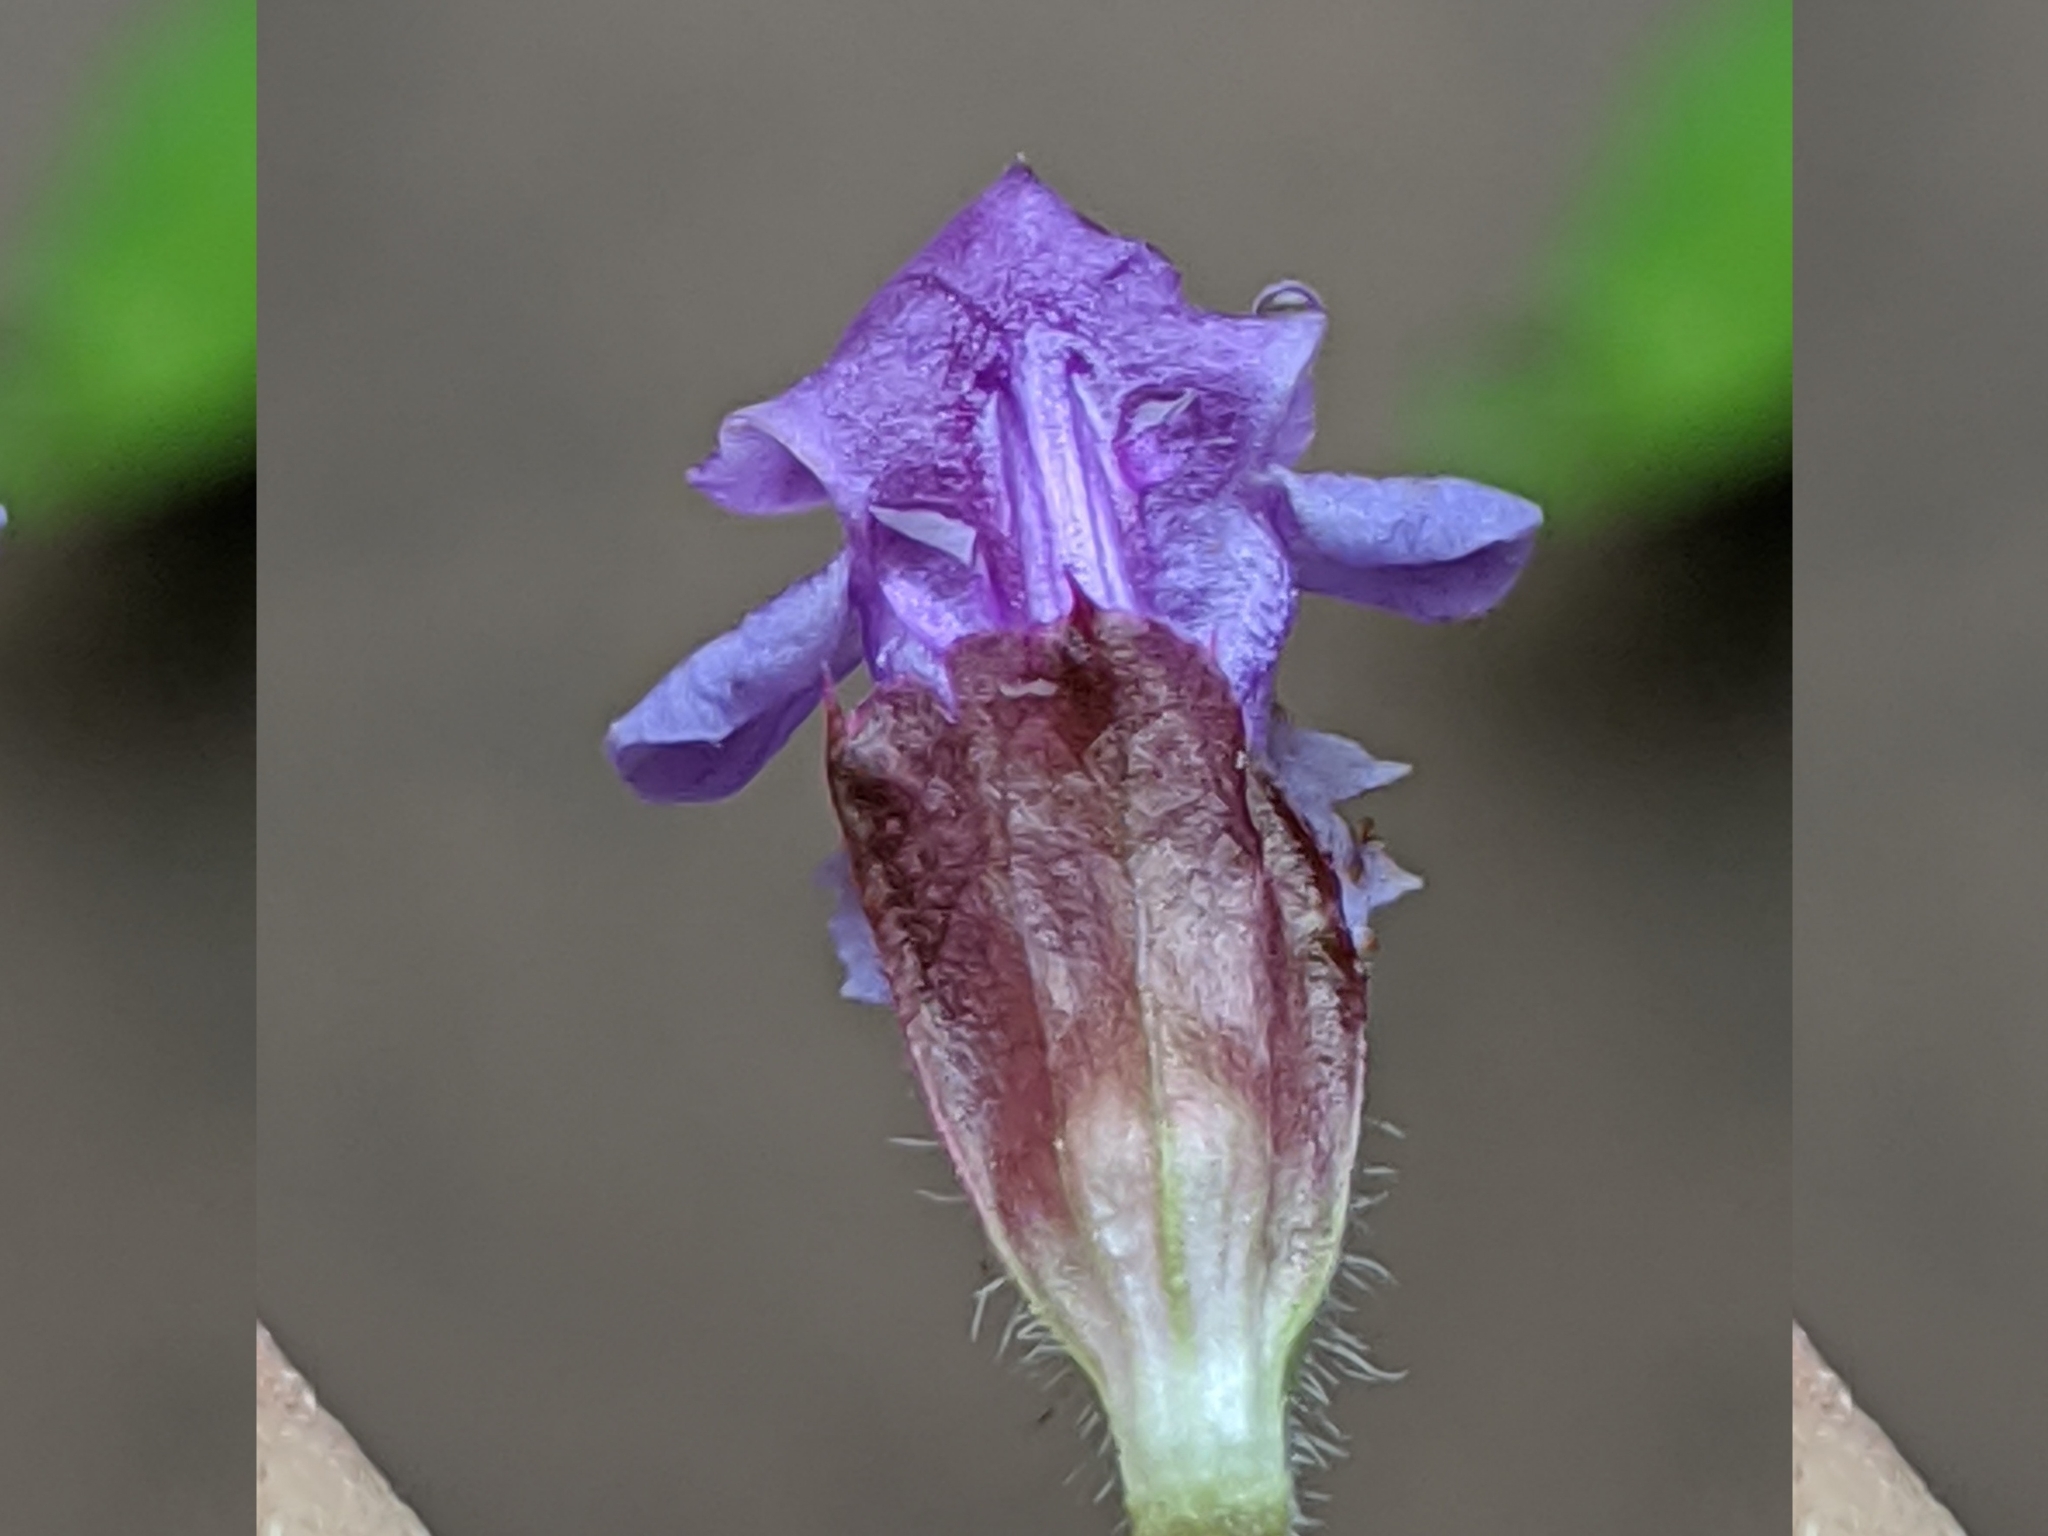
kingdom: Plantae
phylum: Tracheophyta
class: Magnoliopsida
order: Lamiales
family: Lamiaceae
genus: Prunella
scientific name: Prunella vulgaris
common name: Heal-all
